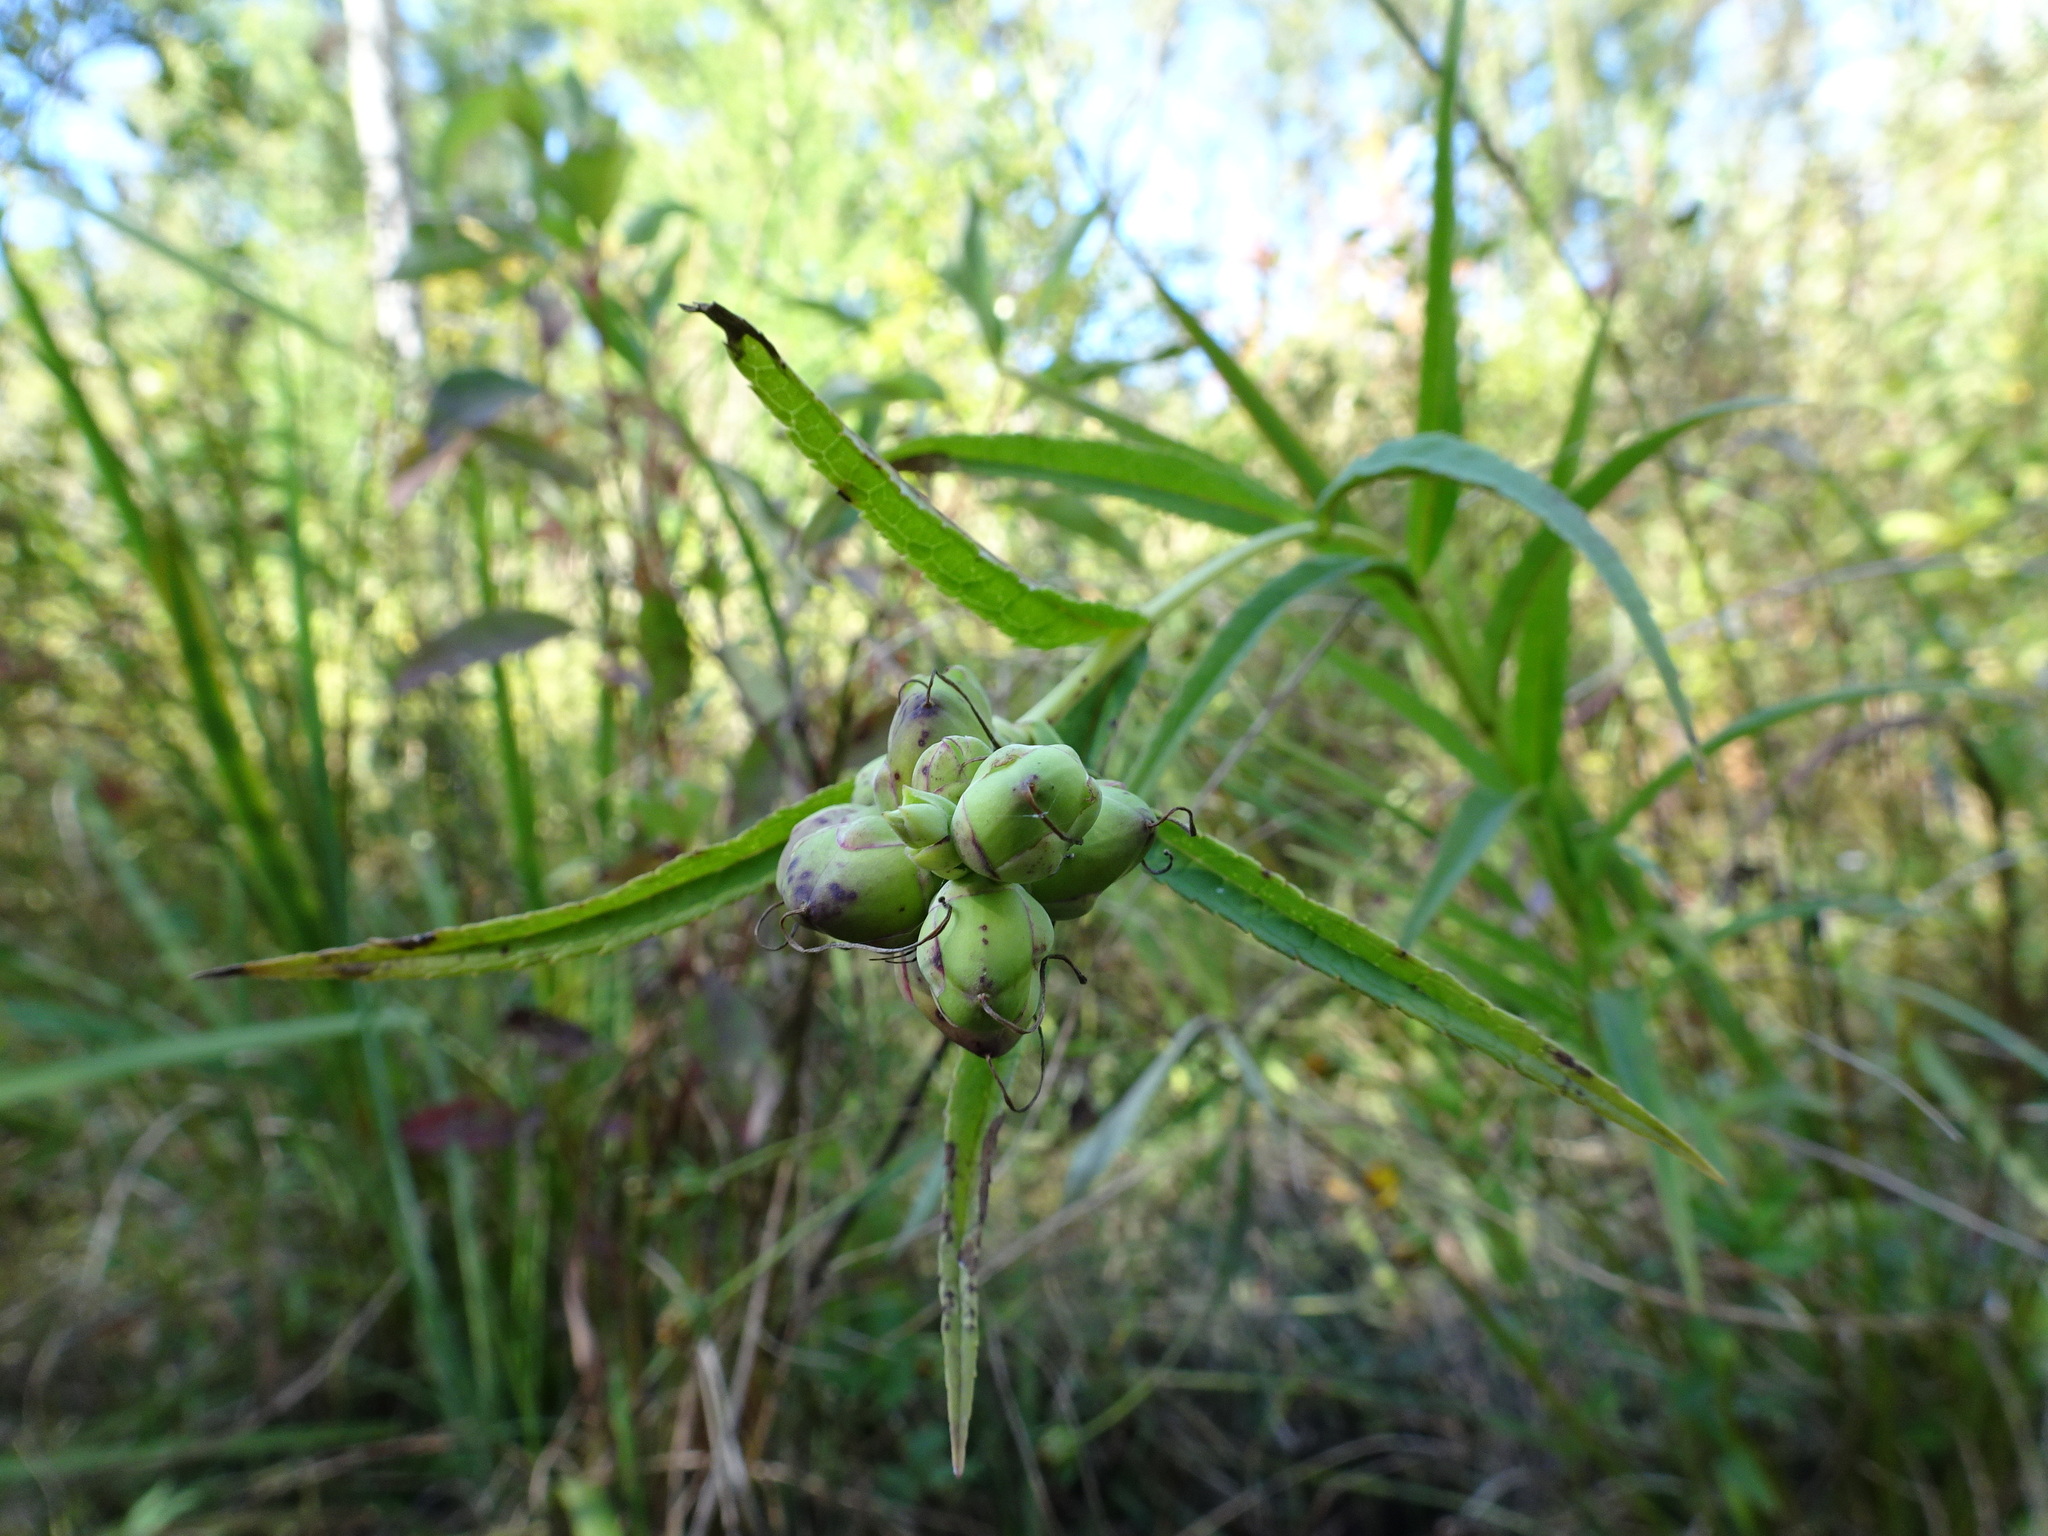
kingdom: Plantae
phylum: Tracheophyta
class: Magnoliopsida
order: Lamiales
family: Plantaginaceae
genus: Chelone
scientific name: Chelone glabra
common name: Snakehead
